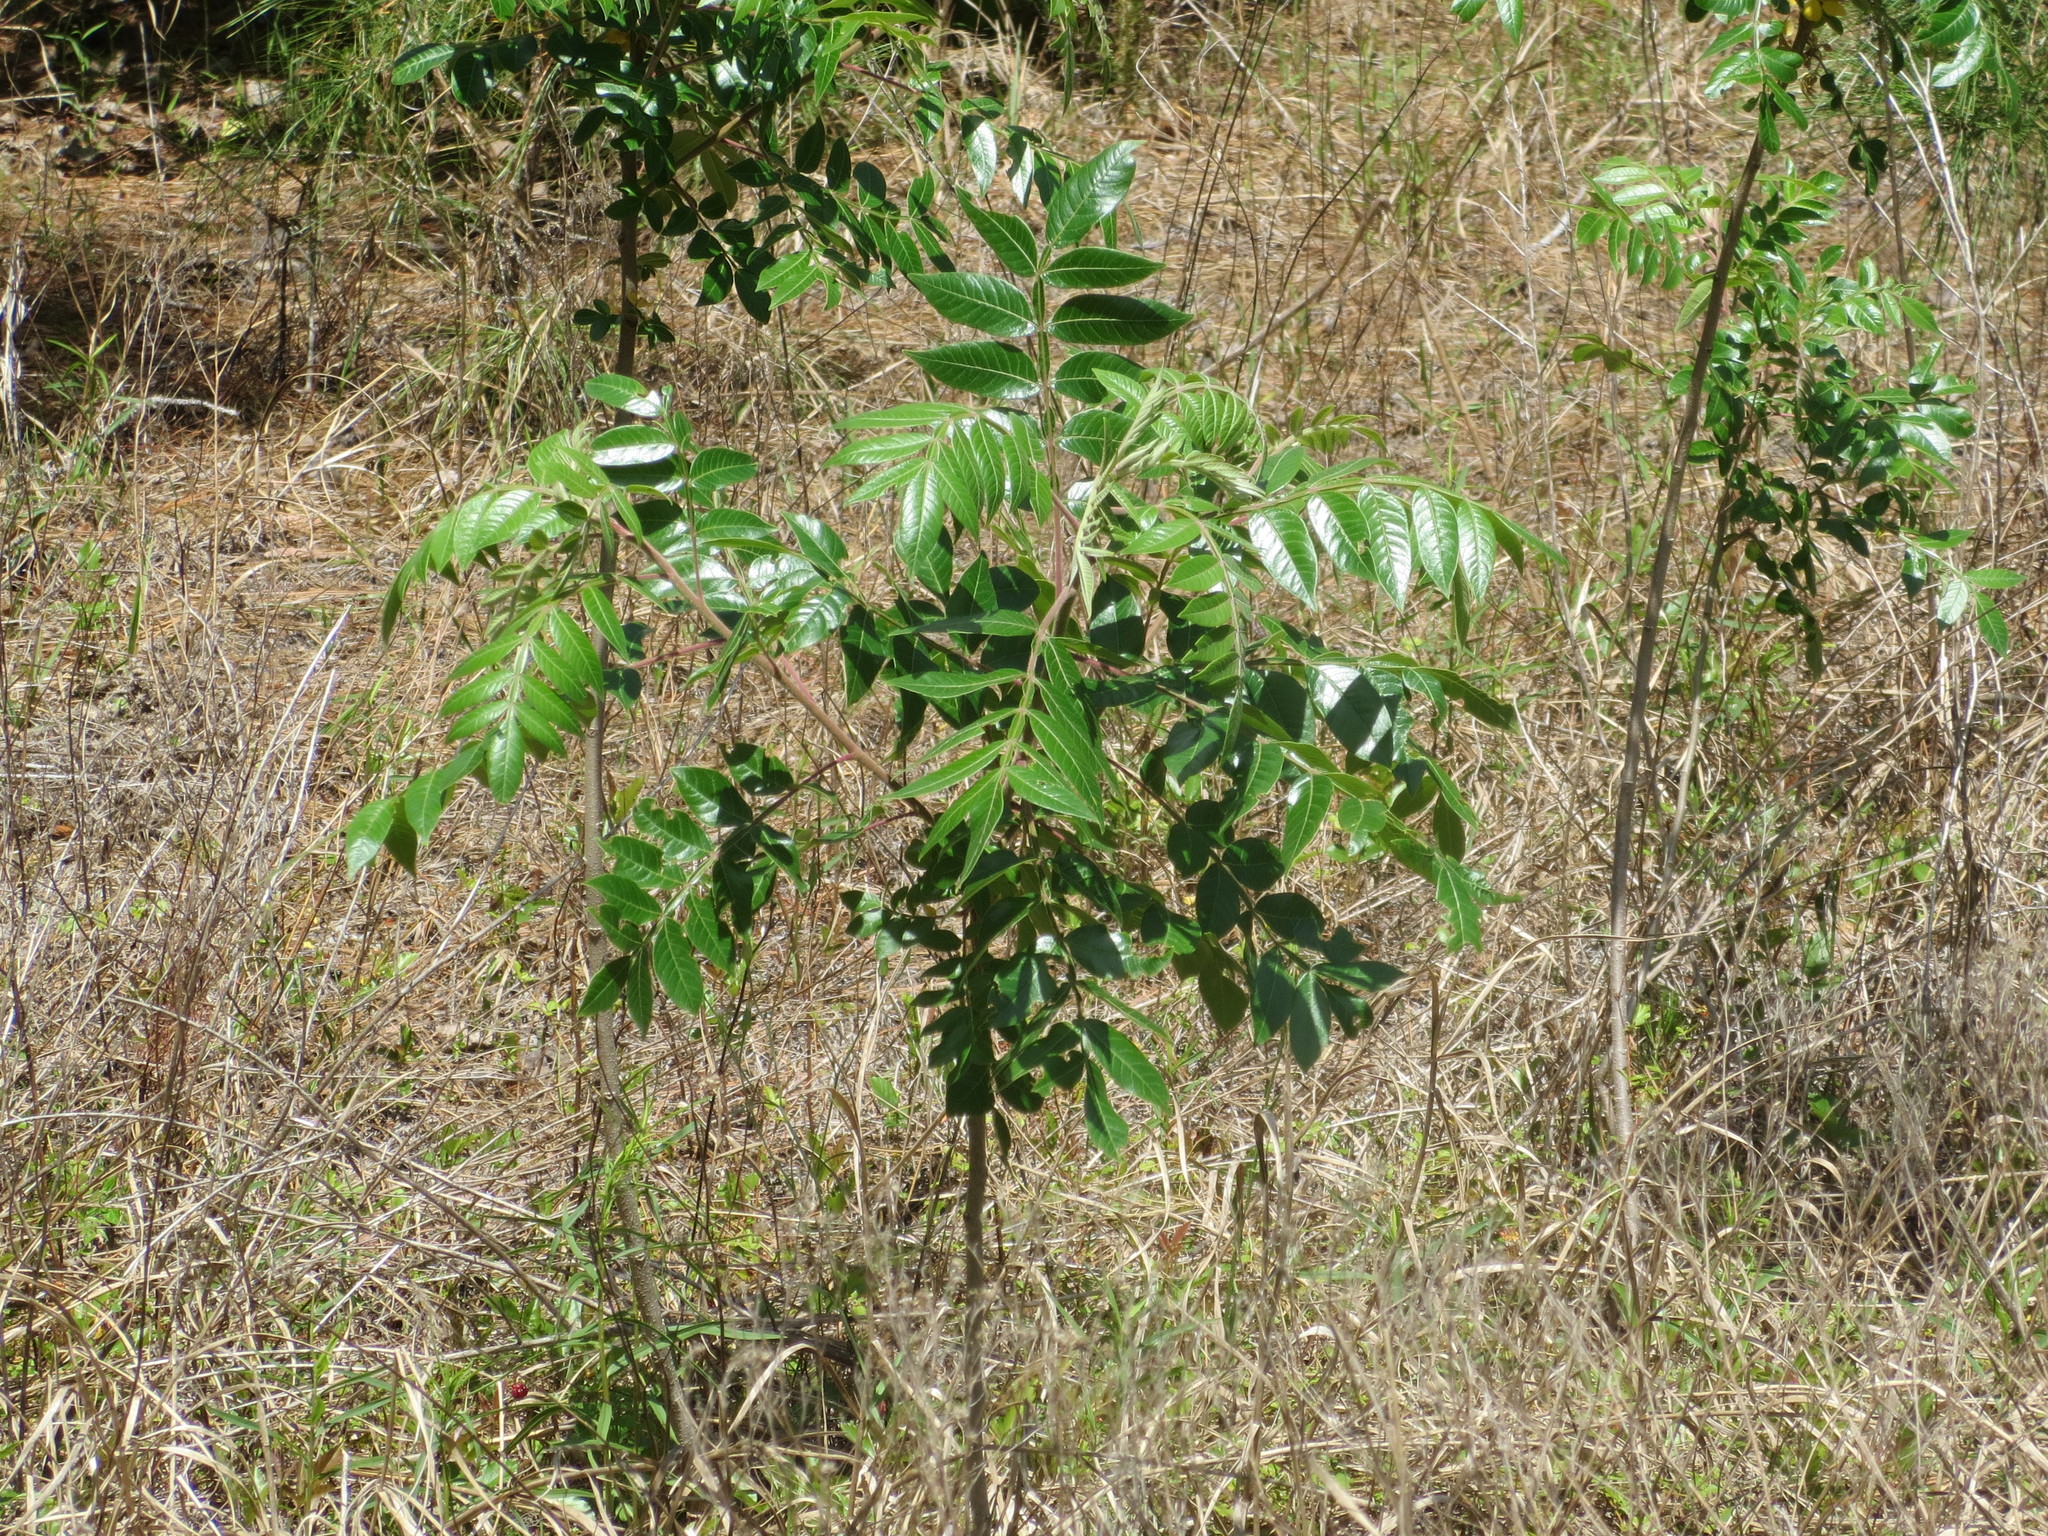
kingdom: Plantae
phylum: Tracheophyta
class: Magnoliopsida
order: Sapindales
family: Anacardiaceae
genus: Rhus
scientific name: Rhus copallina
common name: Shining sumac
